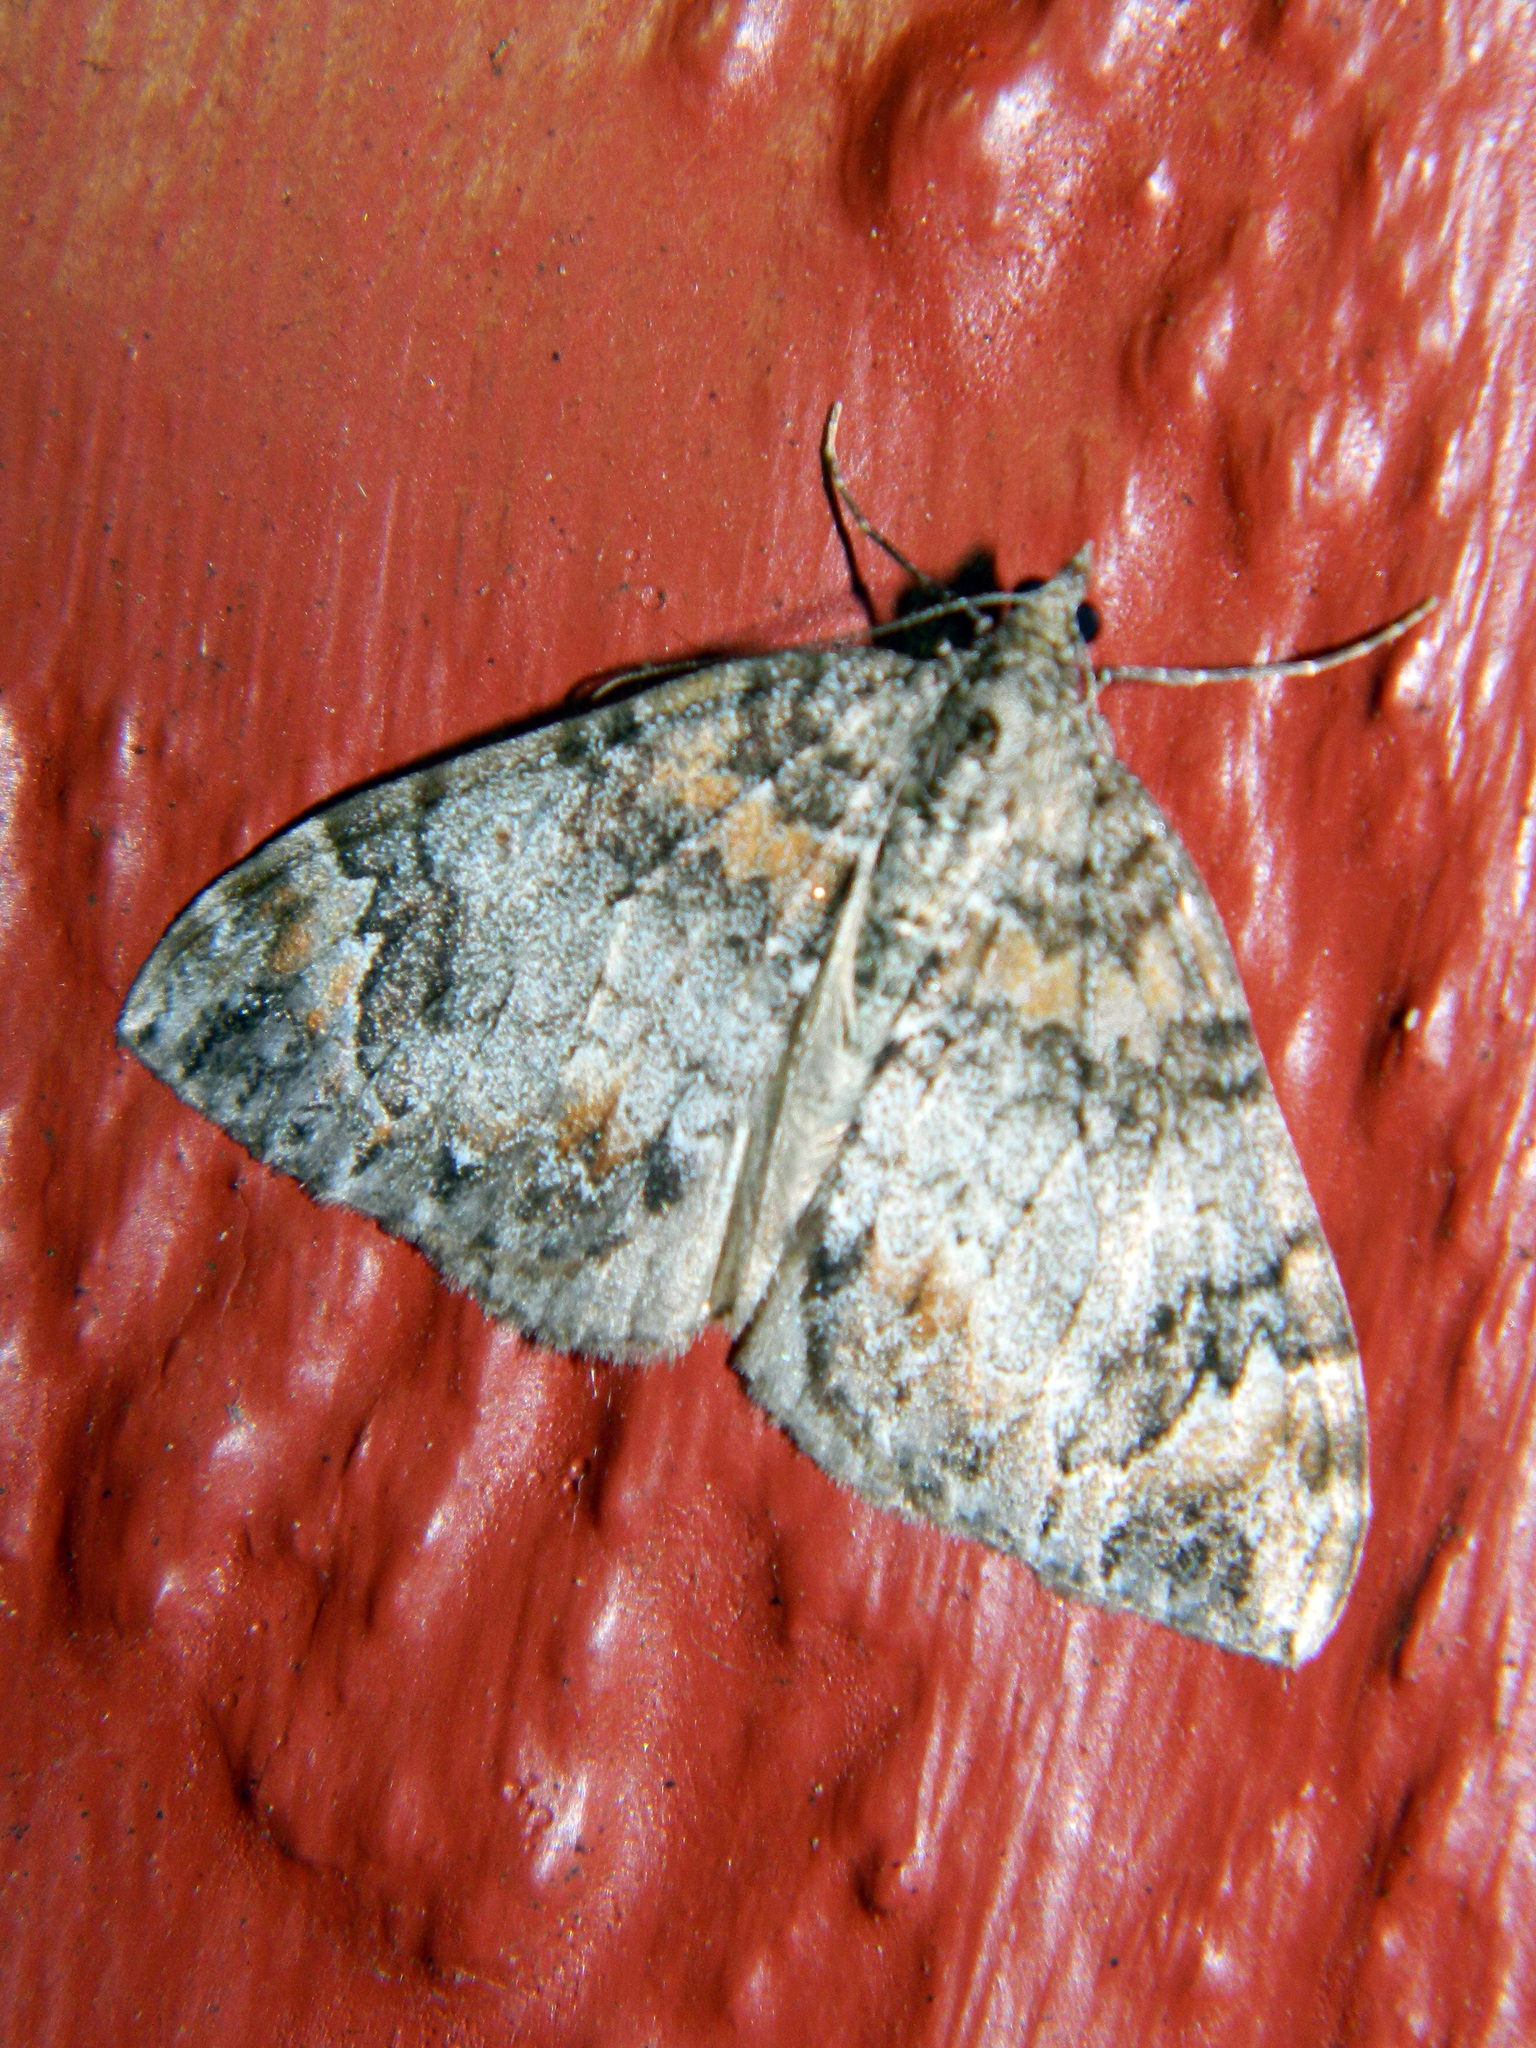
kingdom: Animalia
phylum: Arthropoda
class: Insecta
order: Lepidoptera
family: Geometridae
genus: Dysstroma
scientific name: Dysstroma citrata
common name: Dark marbled carpet
